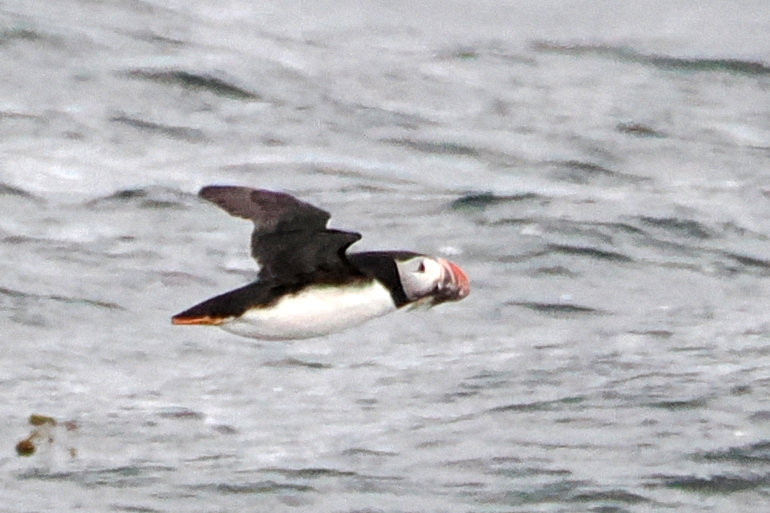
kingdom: Animalia
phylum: Chordata
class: Aves
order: Charadriiformes
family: Alcidae
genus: Fratercula
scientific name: Fratercula arctica
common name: Atlantic puffin
